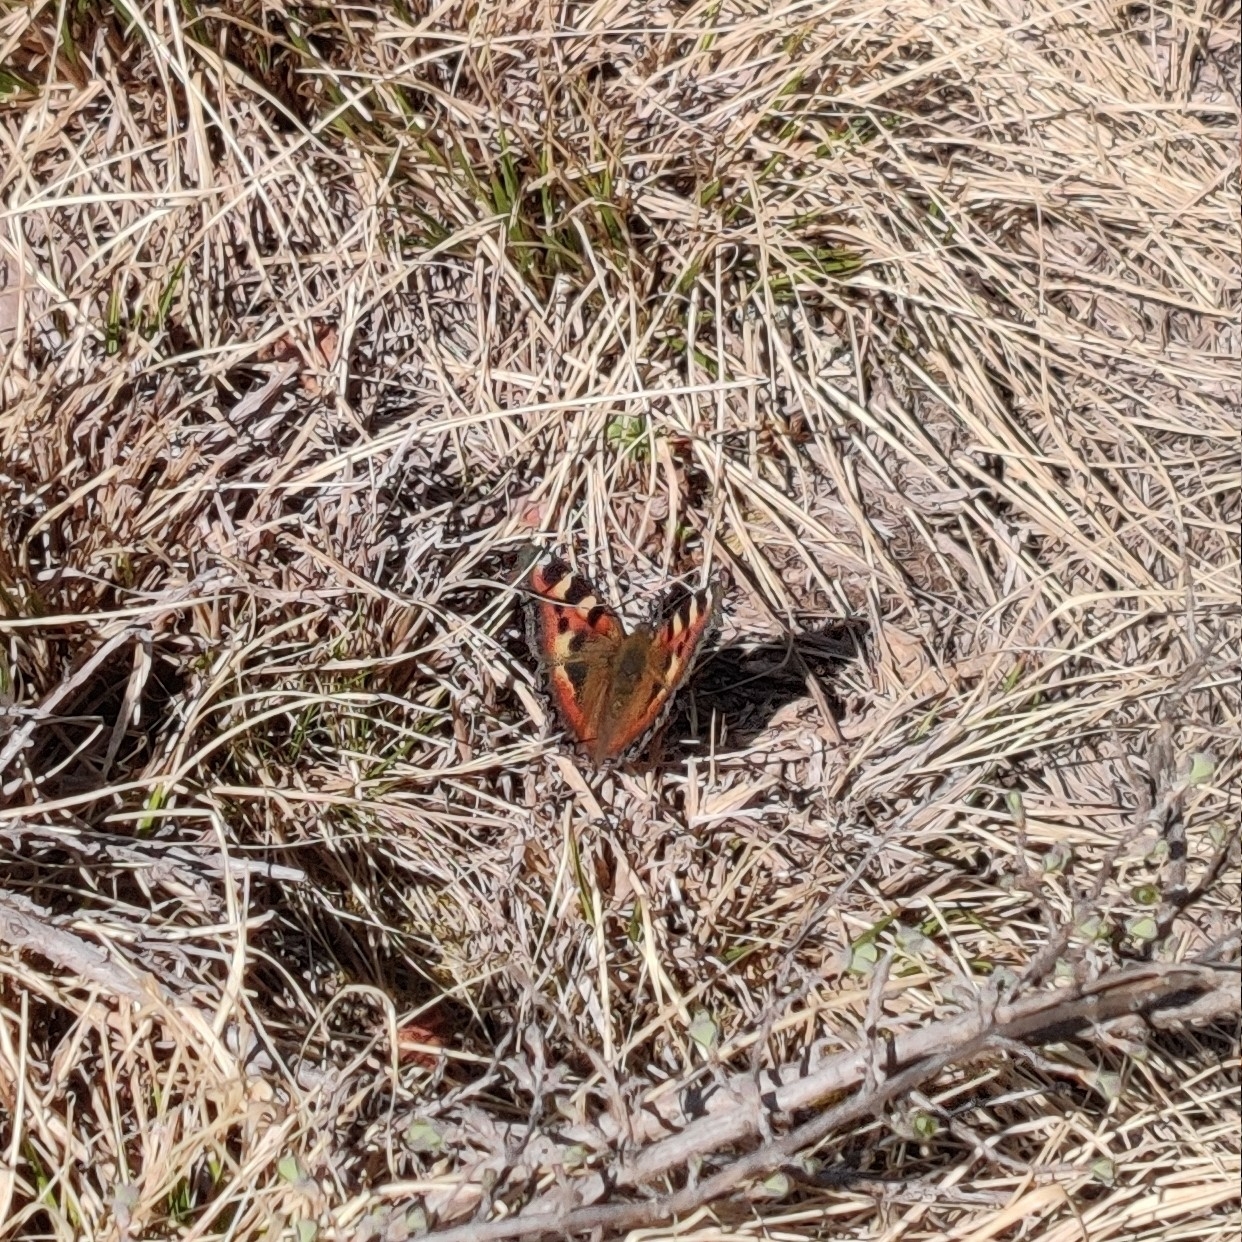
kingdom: Animalia
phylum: Arthropoda
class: Insecta
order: Lepidoptera
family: Nymphalidae
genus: Aglais
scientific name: Aglais caschmirensis
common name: Indian tortoiseshell
